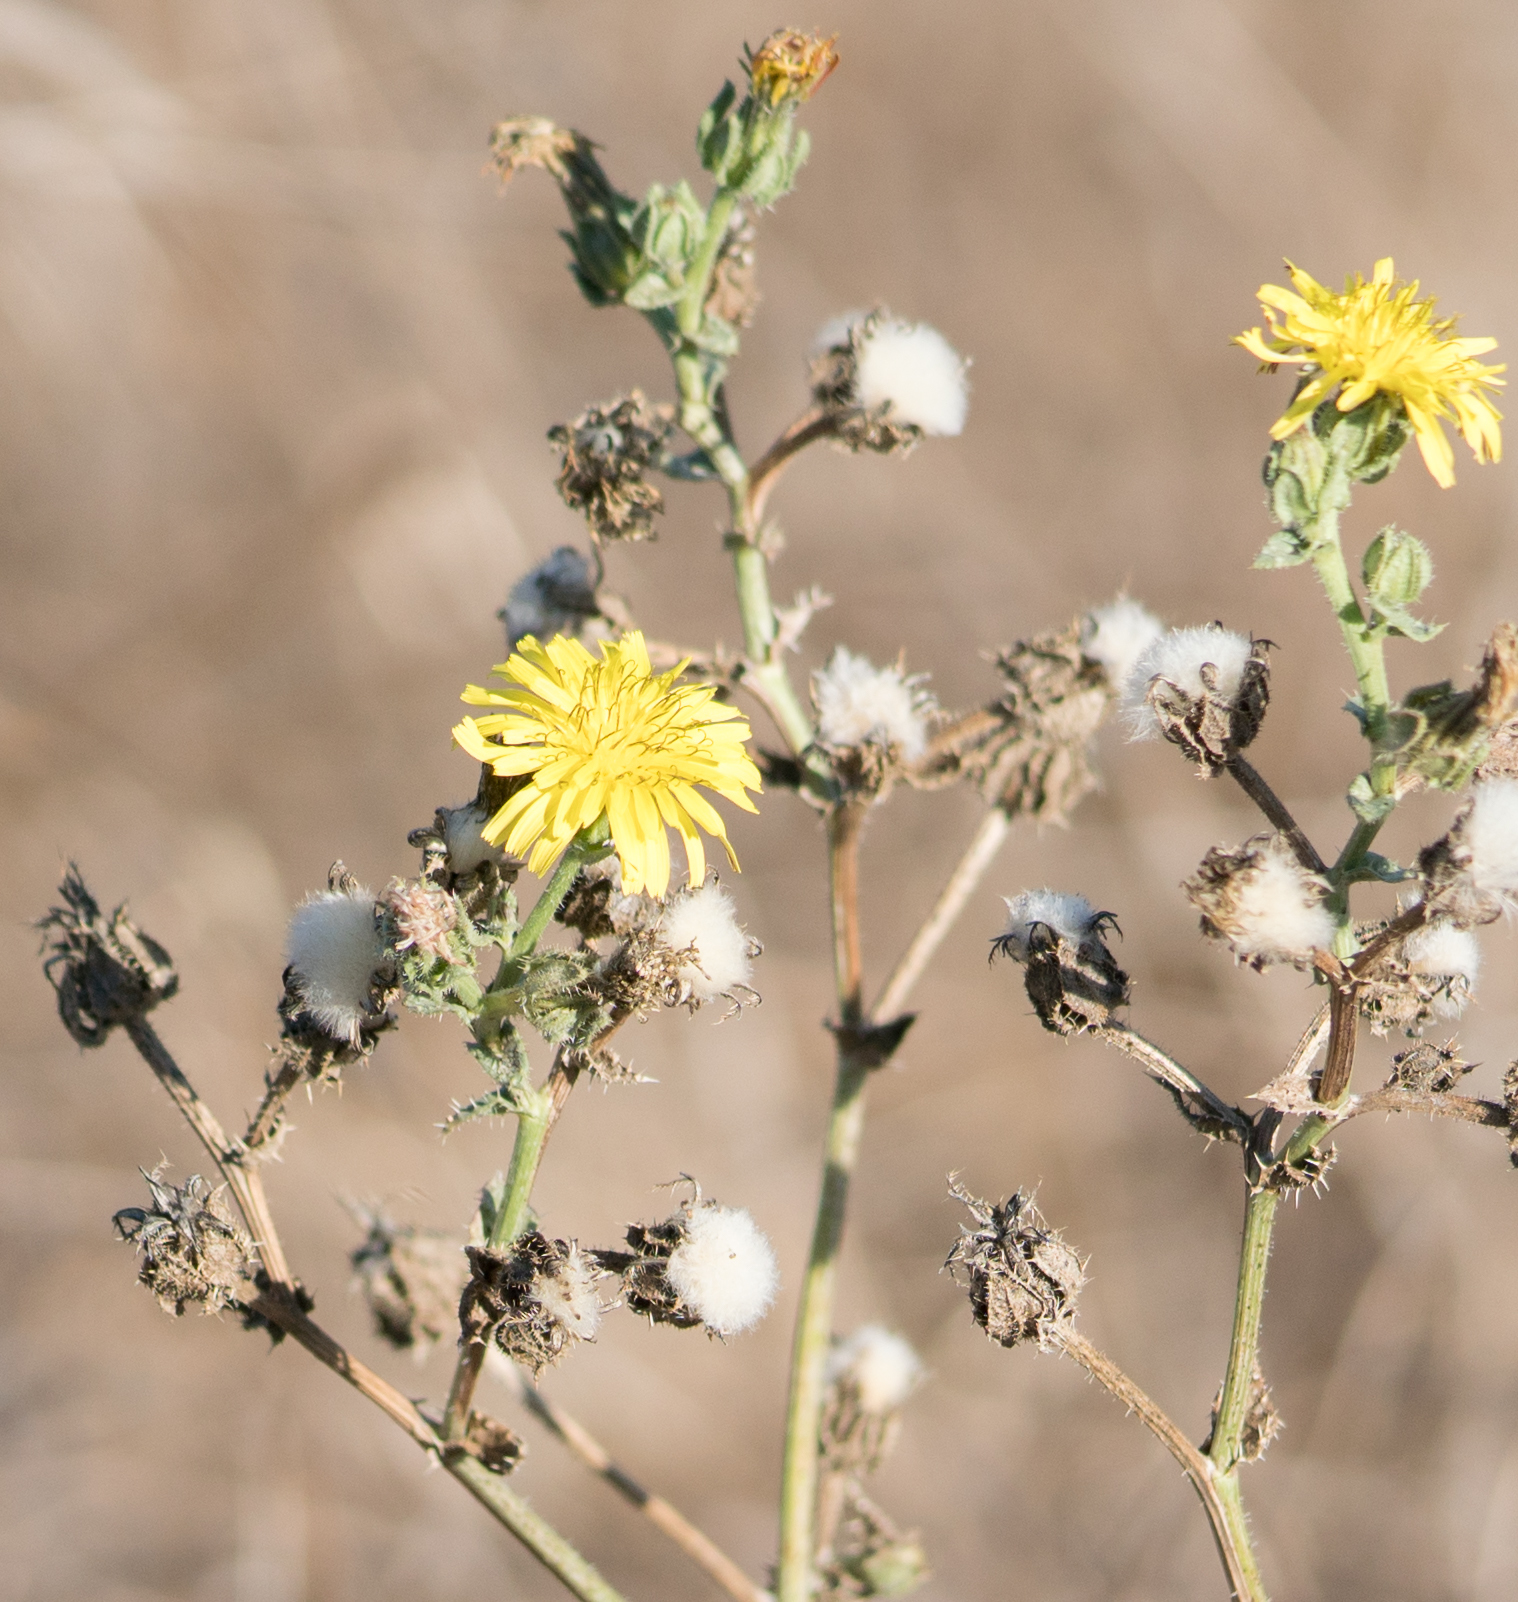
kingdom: Plantae
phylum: Tracheophyta
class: Magnoliopsida
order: Asterales
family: Asteraceae
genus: Helminthotheca
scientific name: Helminthotheca echioides
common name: Ox-tongue
